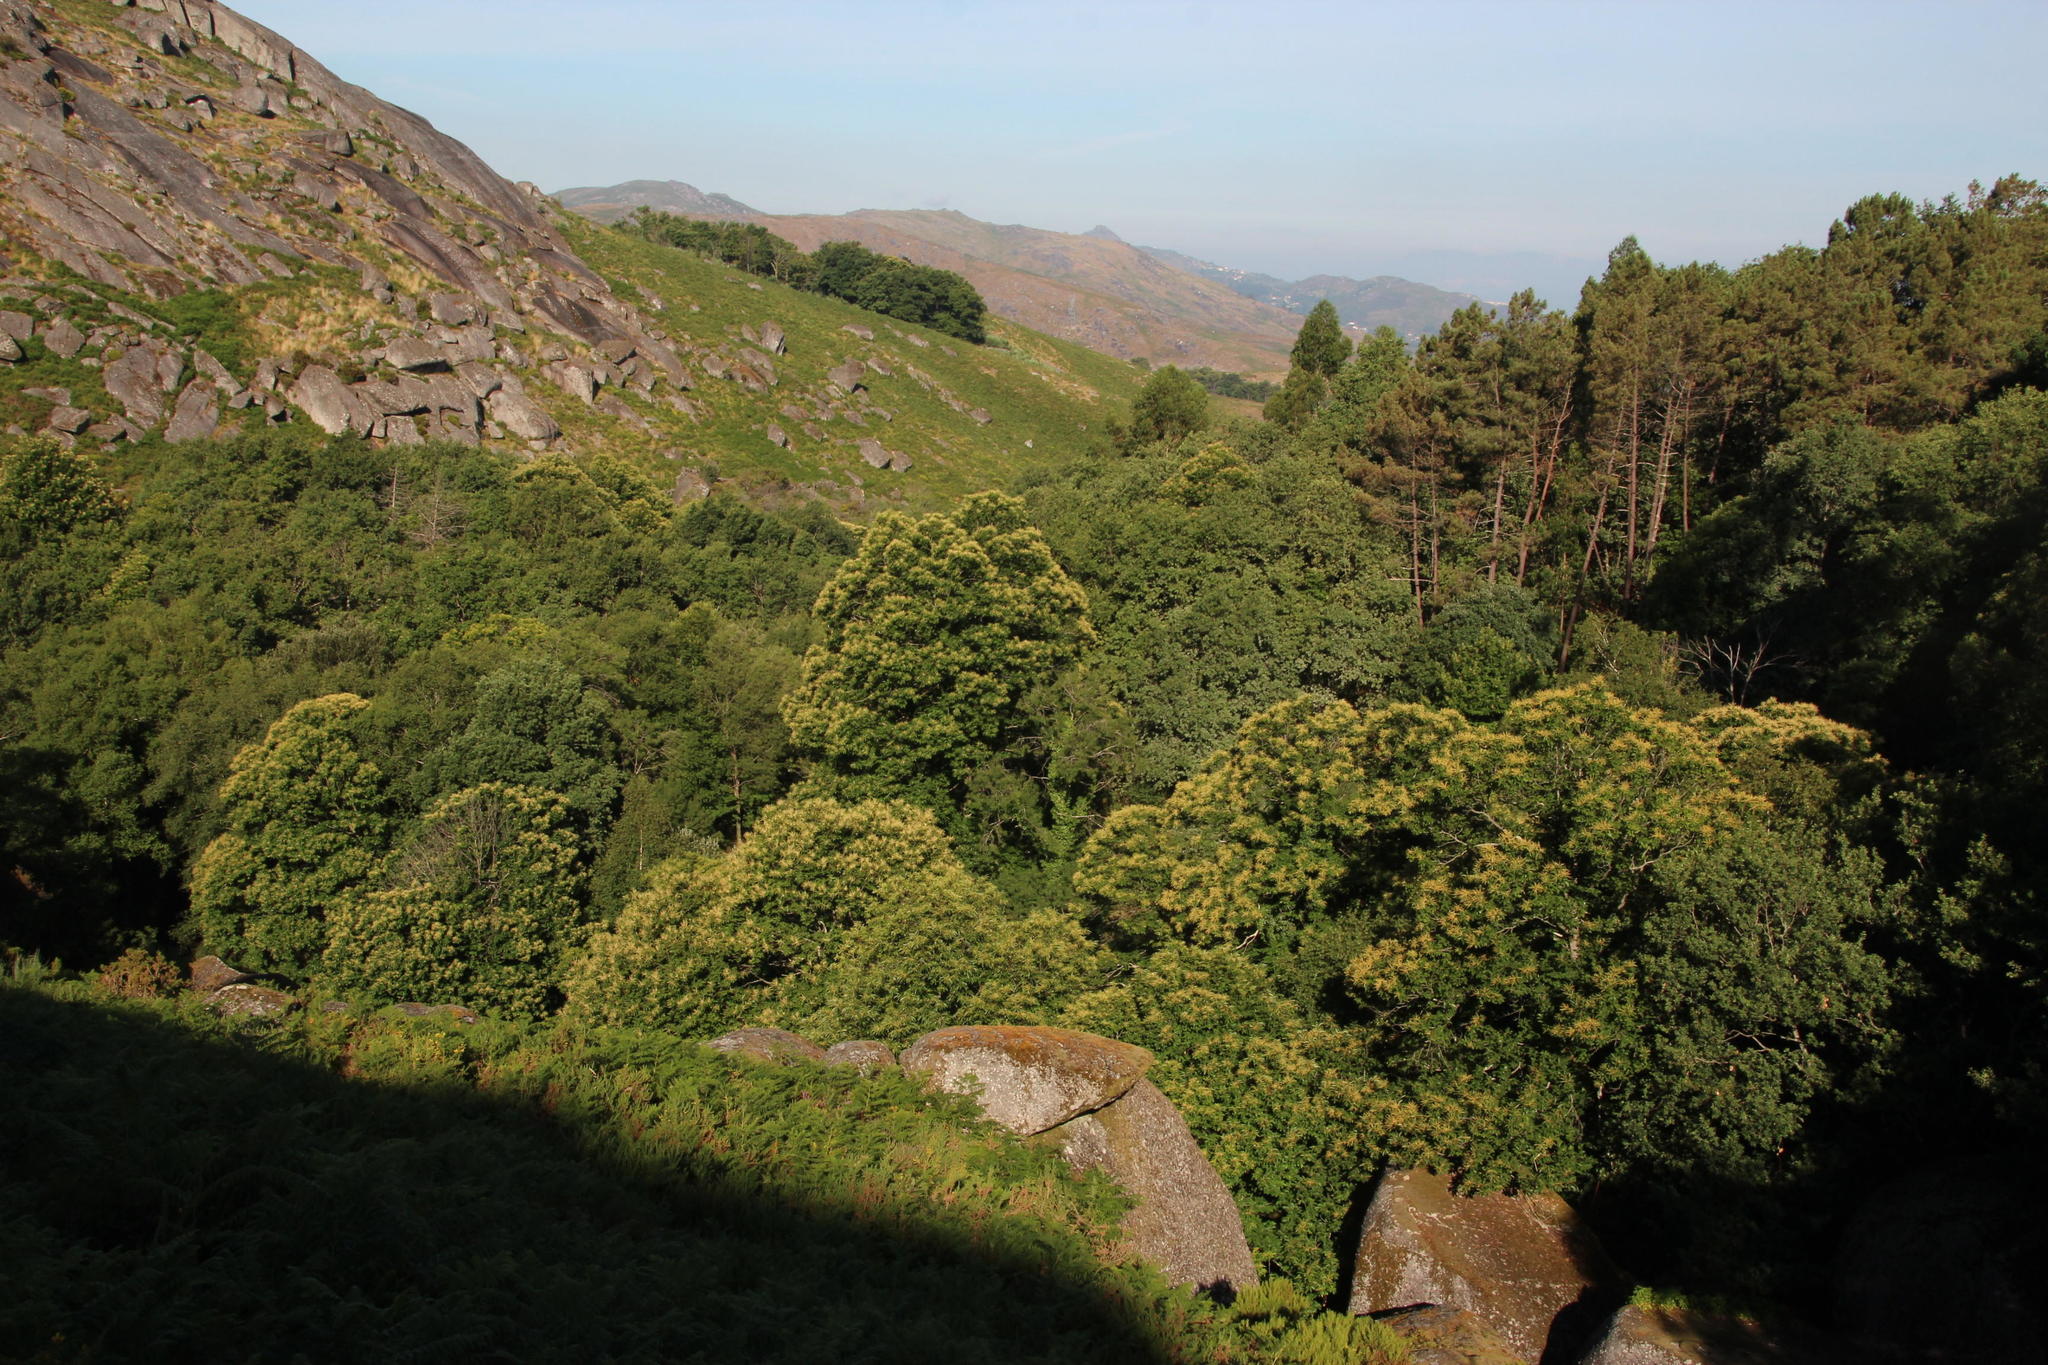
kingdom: Plantae
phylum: Tracheophyta
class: Magnoliopsida
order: Fagales
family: Fagaceae
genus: Castanea
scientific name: Castanea sativa
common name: Sweet chestnut
